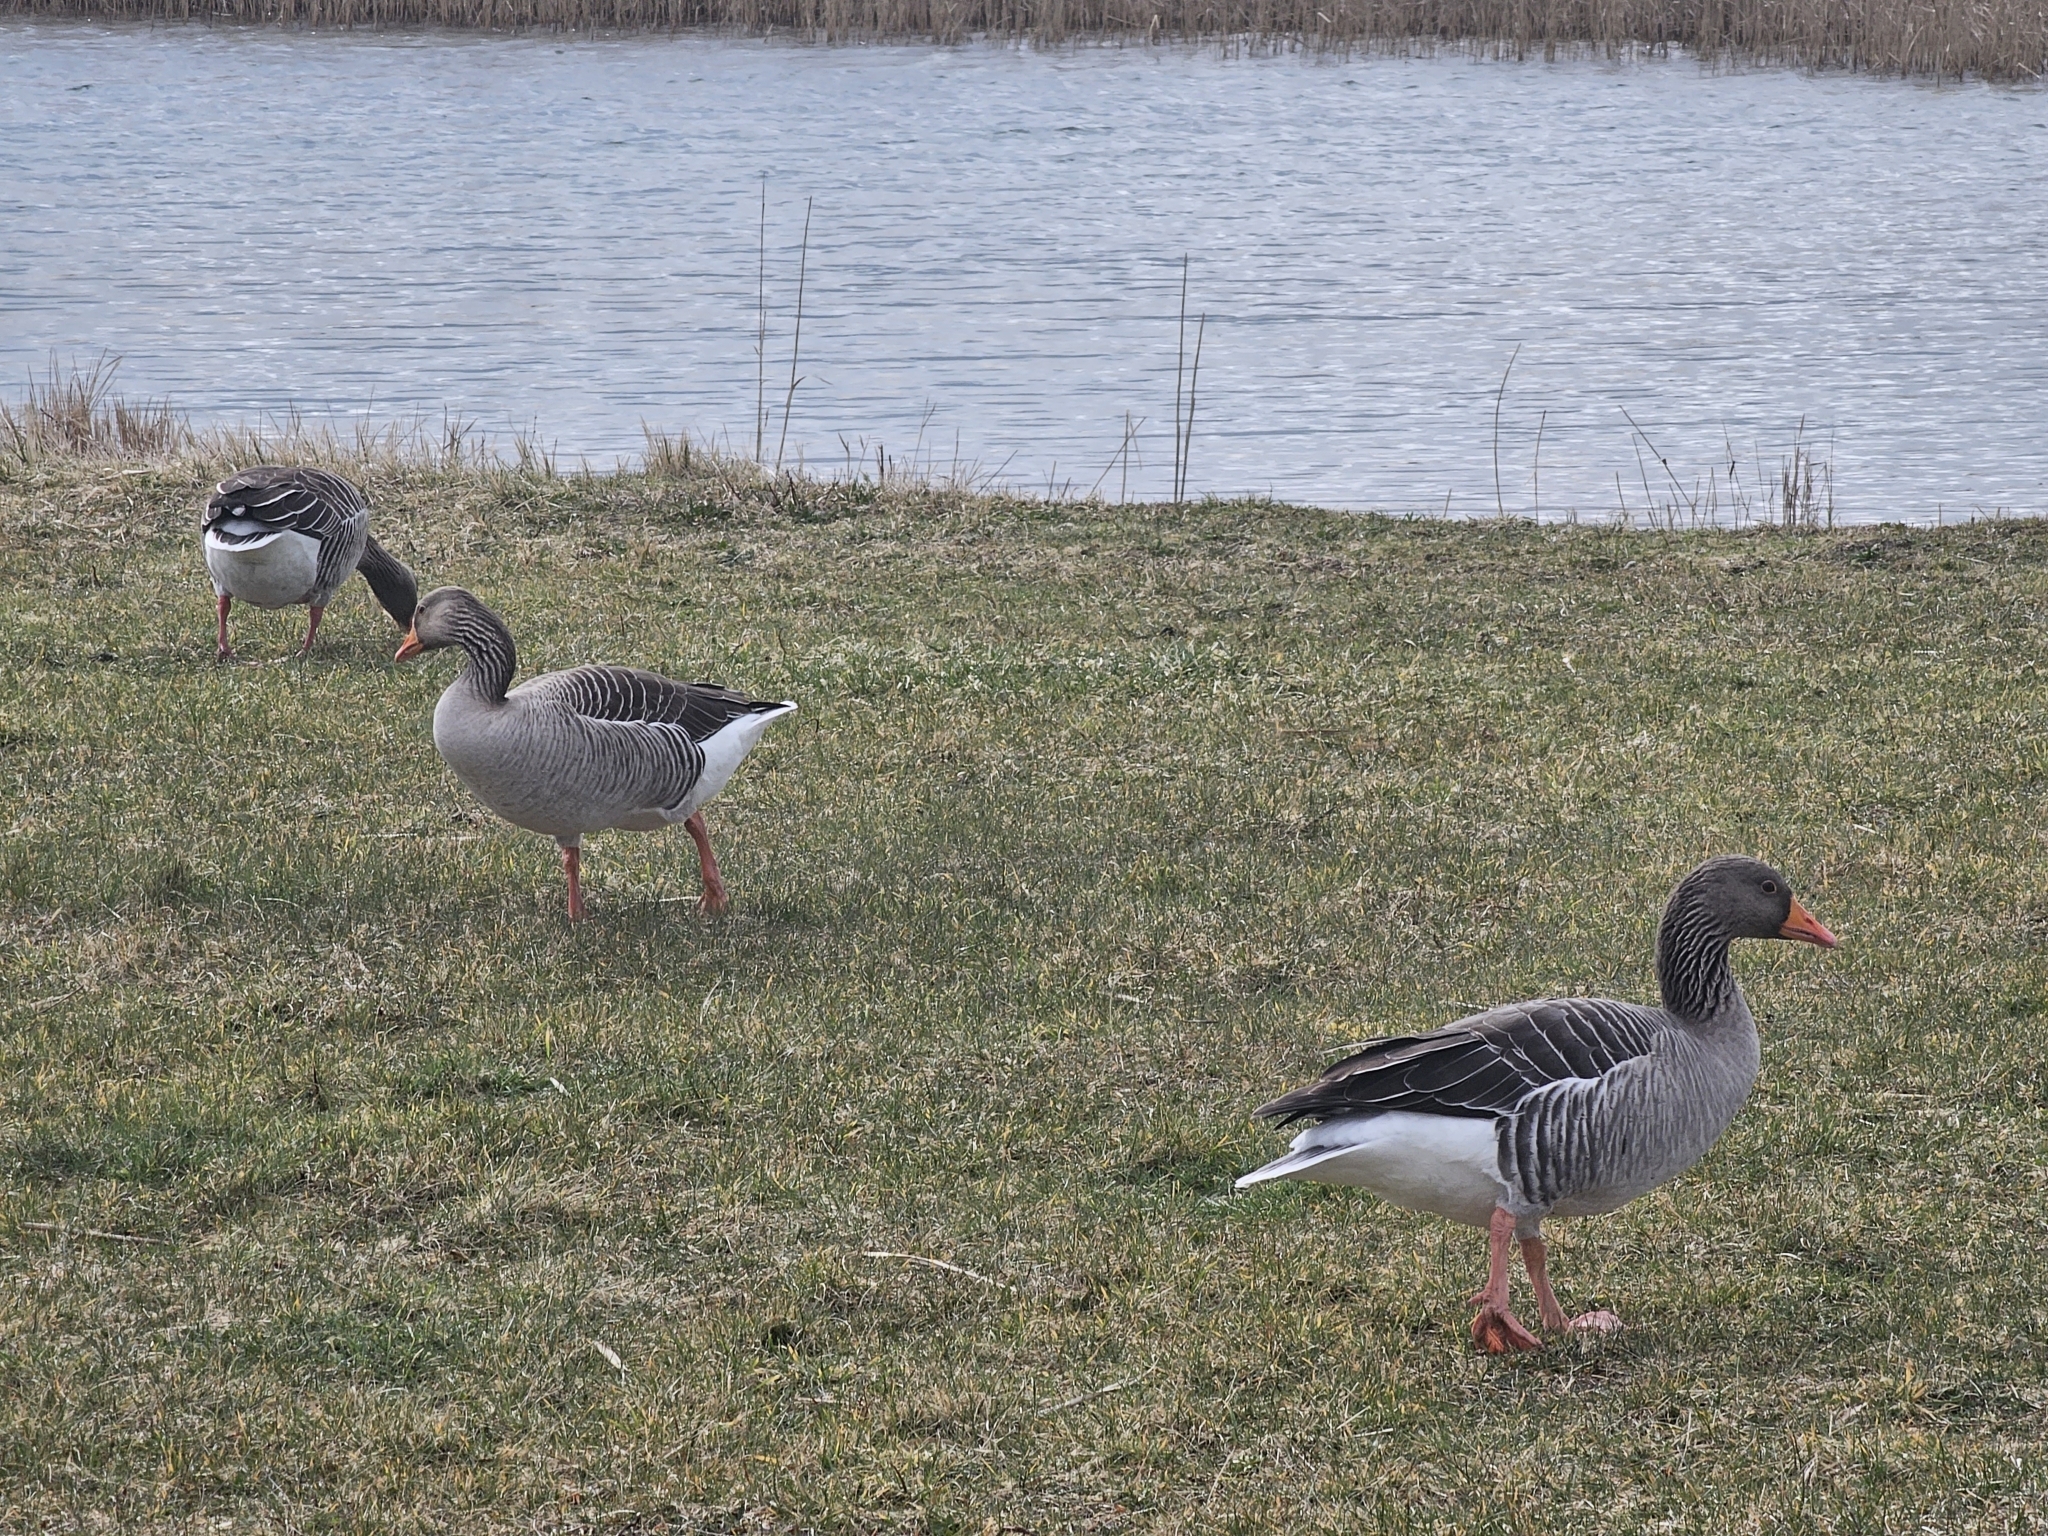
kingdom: Animalia
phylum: Chordata
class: Aves
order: Anseriformes
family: Anatidae
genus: Anser
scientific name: Anser anser
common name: Greylag goose
